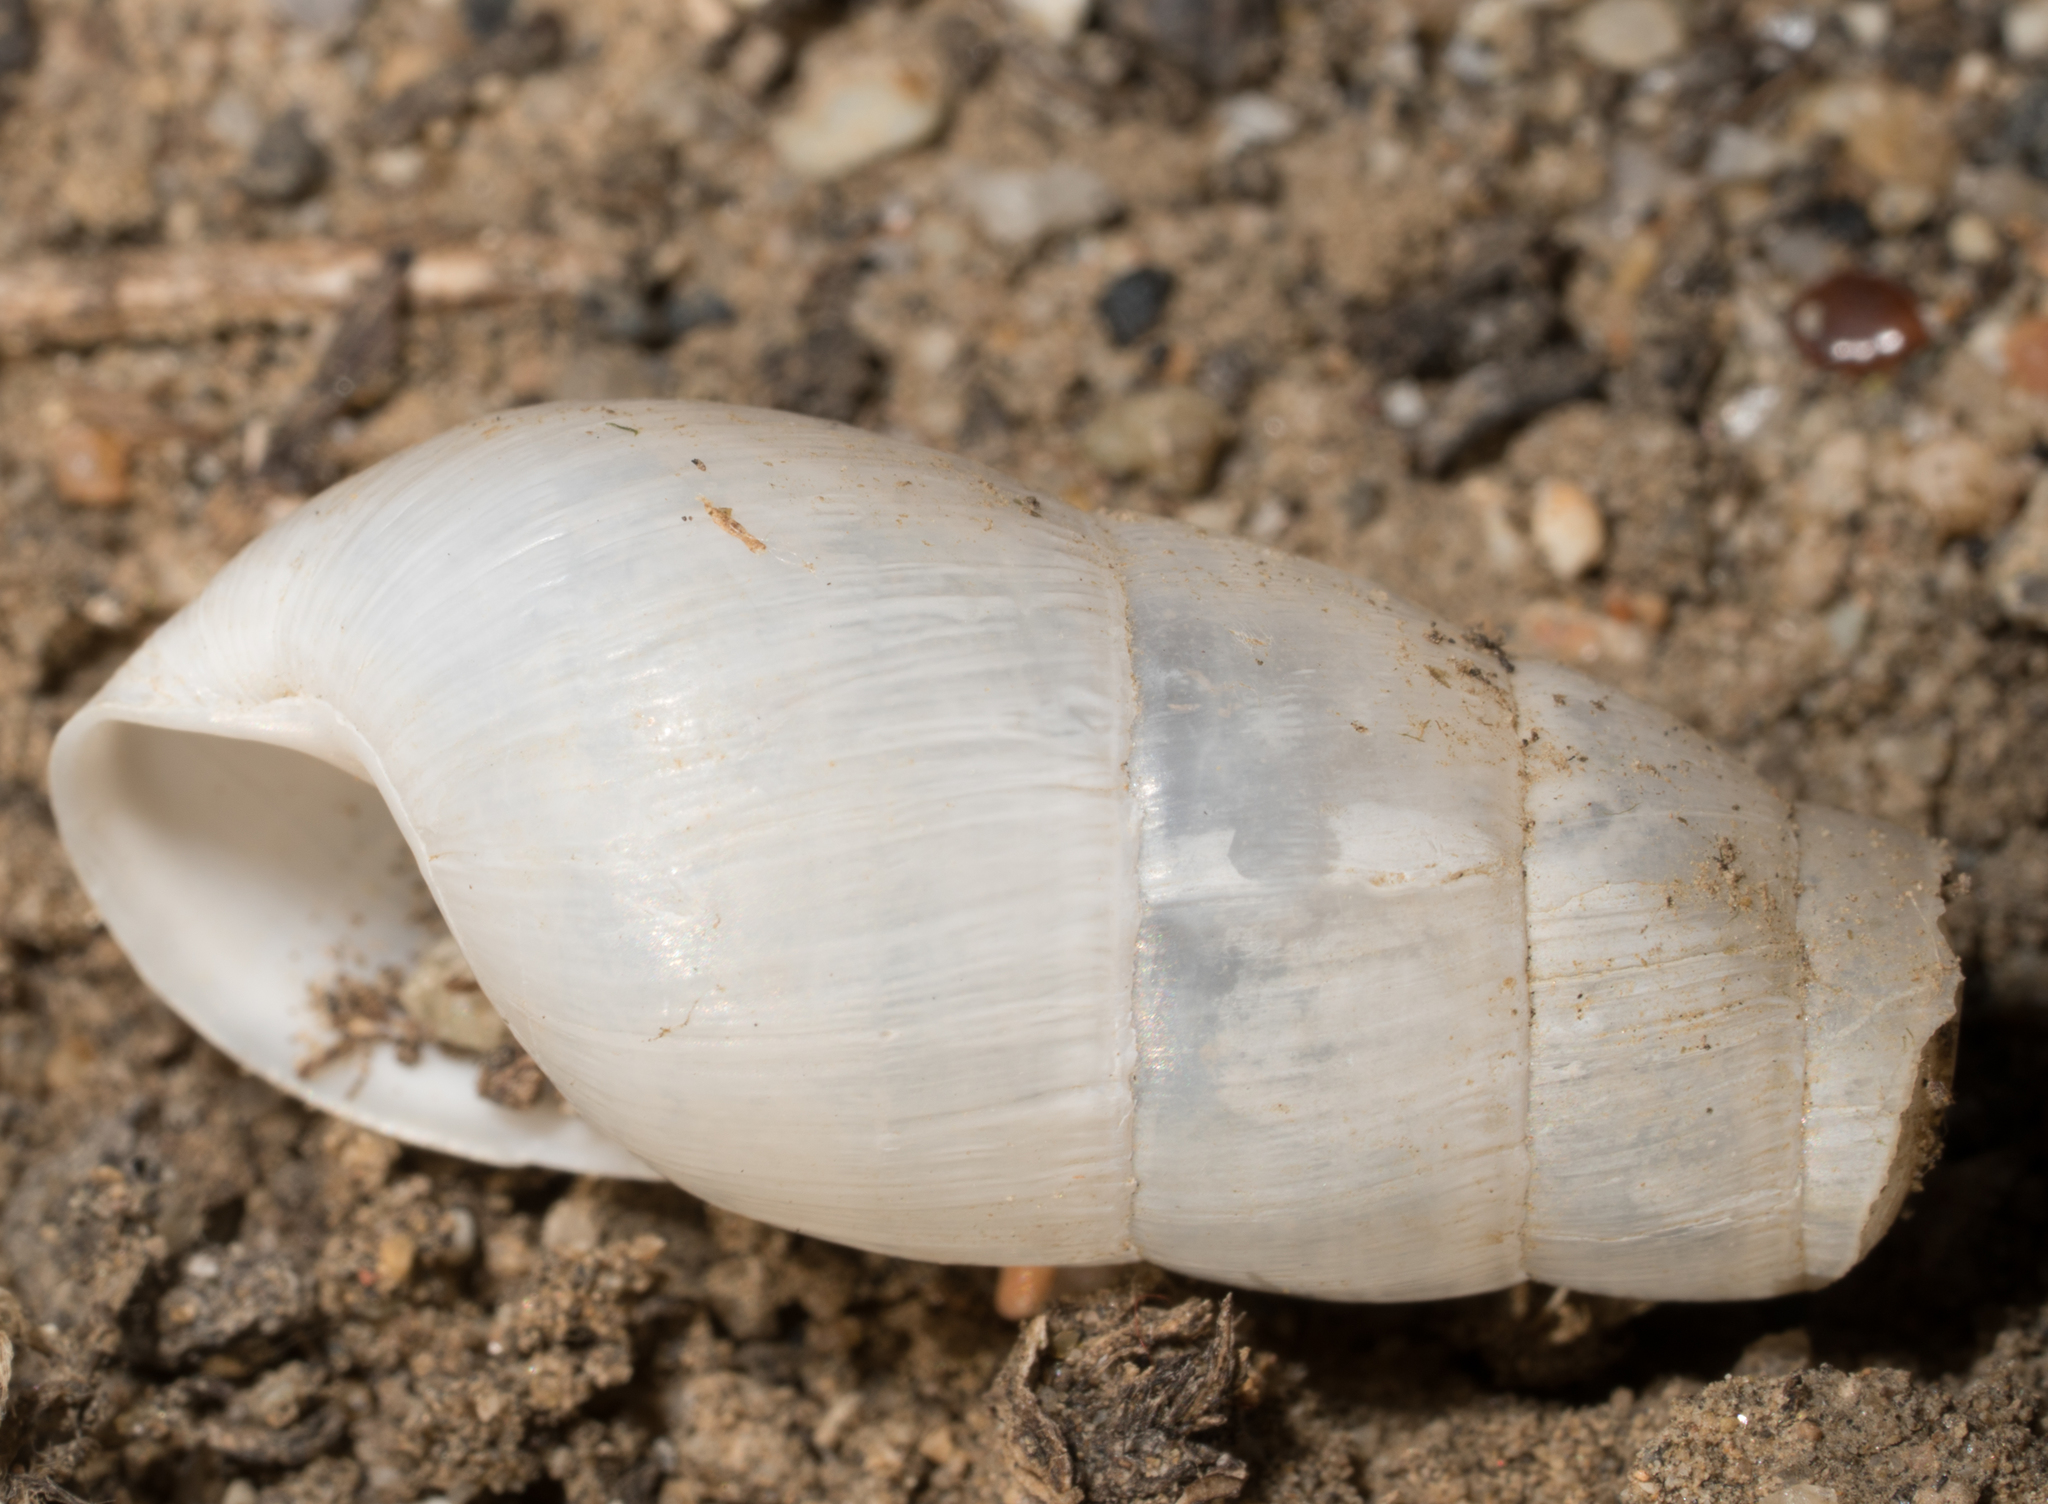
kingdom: Animalia
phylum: Mollusca
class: Gastropoda
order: Stylommatophora
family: Achatinidae
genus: Rumina
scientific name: Rumina decollata
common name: Decollate snail
